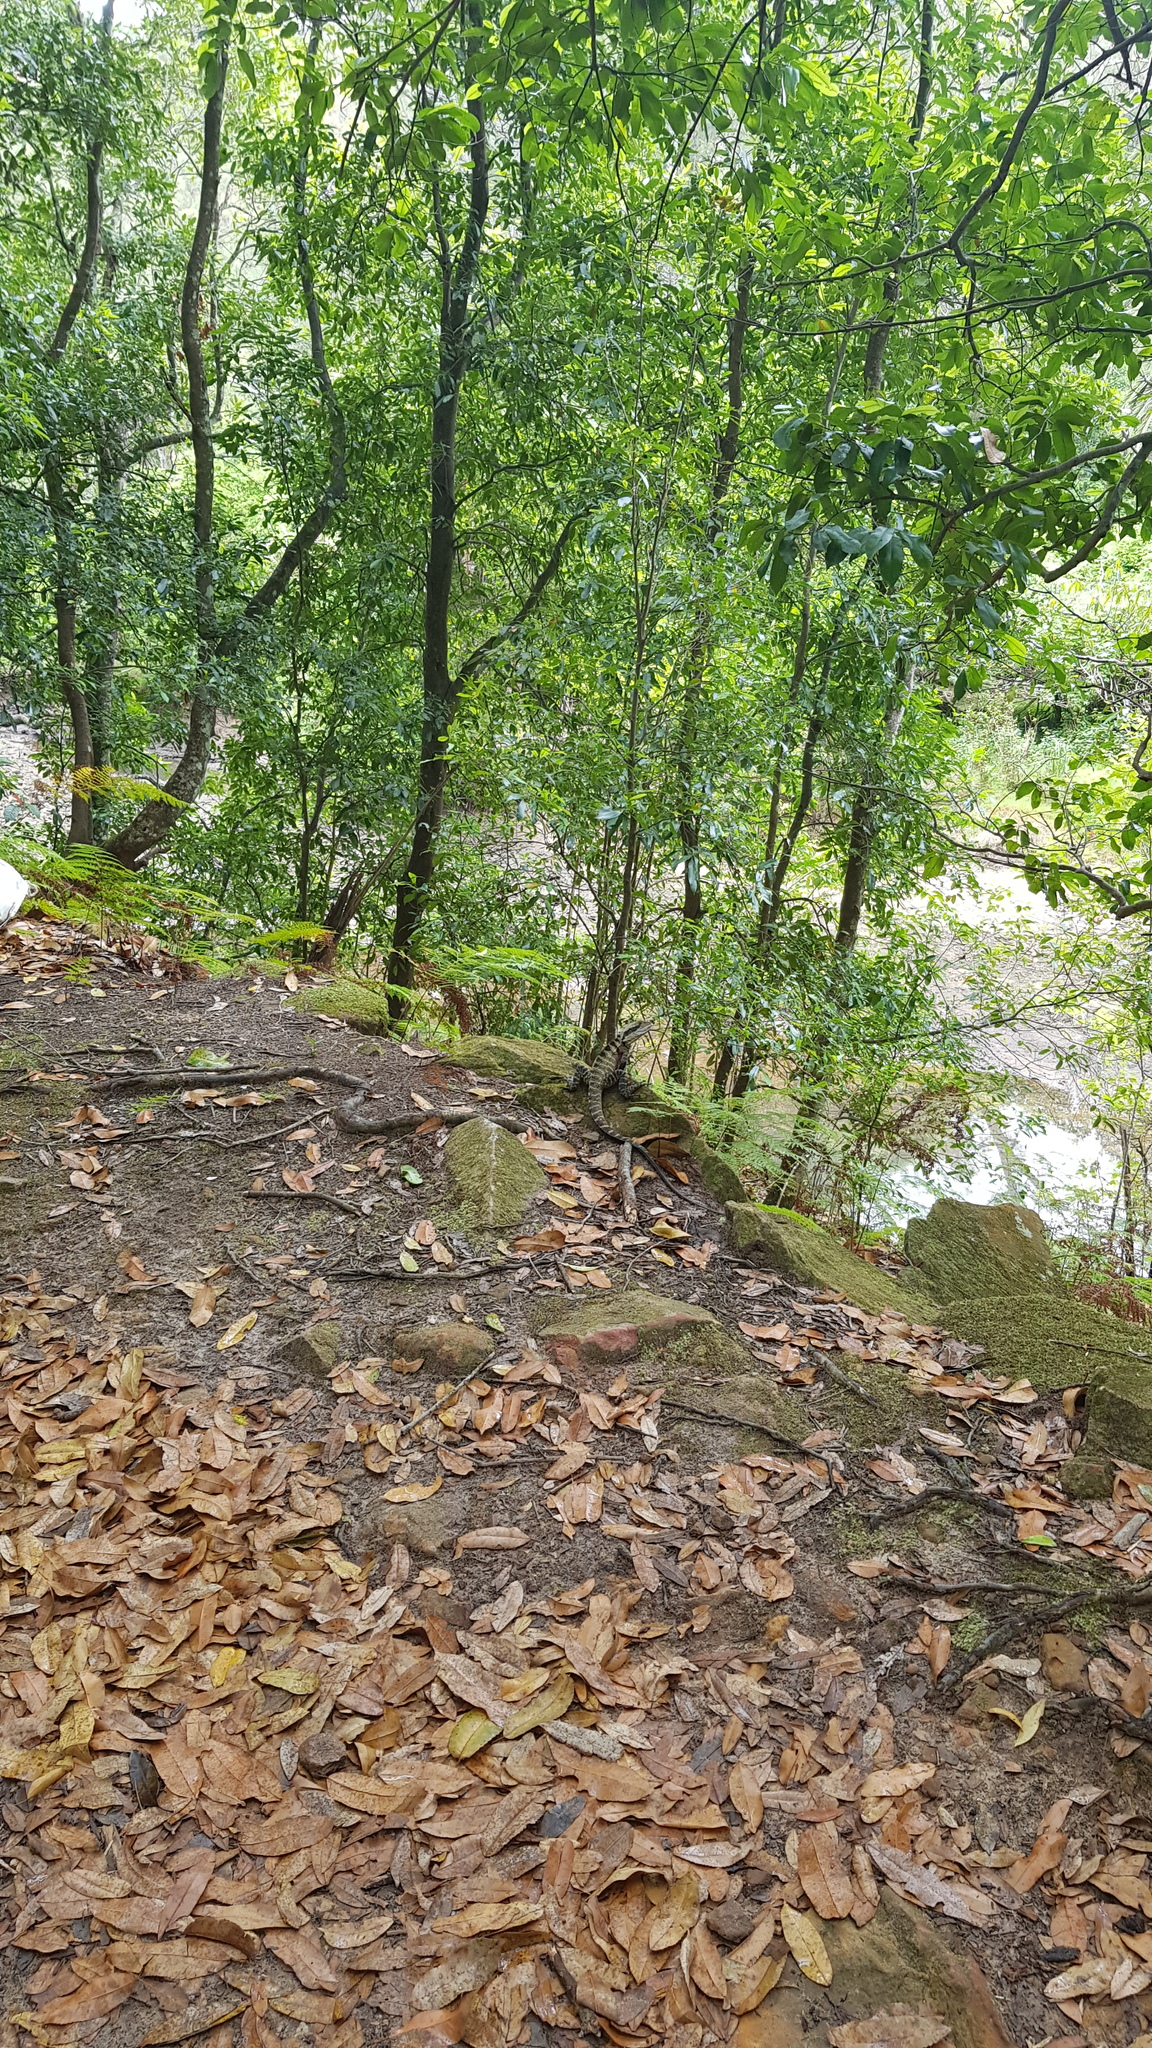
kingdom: Animalia
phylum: Chordata
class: Squamata
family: Agamidae
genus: Intellagama
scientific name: Intellagama lesueurii
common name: Eastern water dragon
